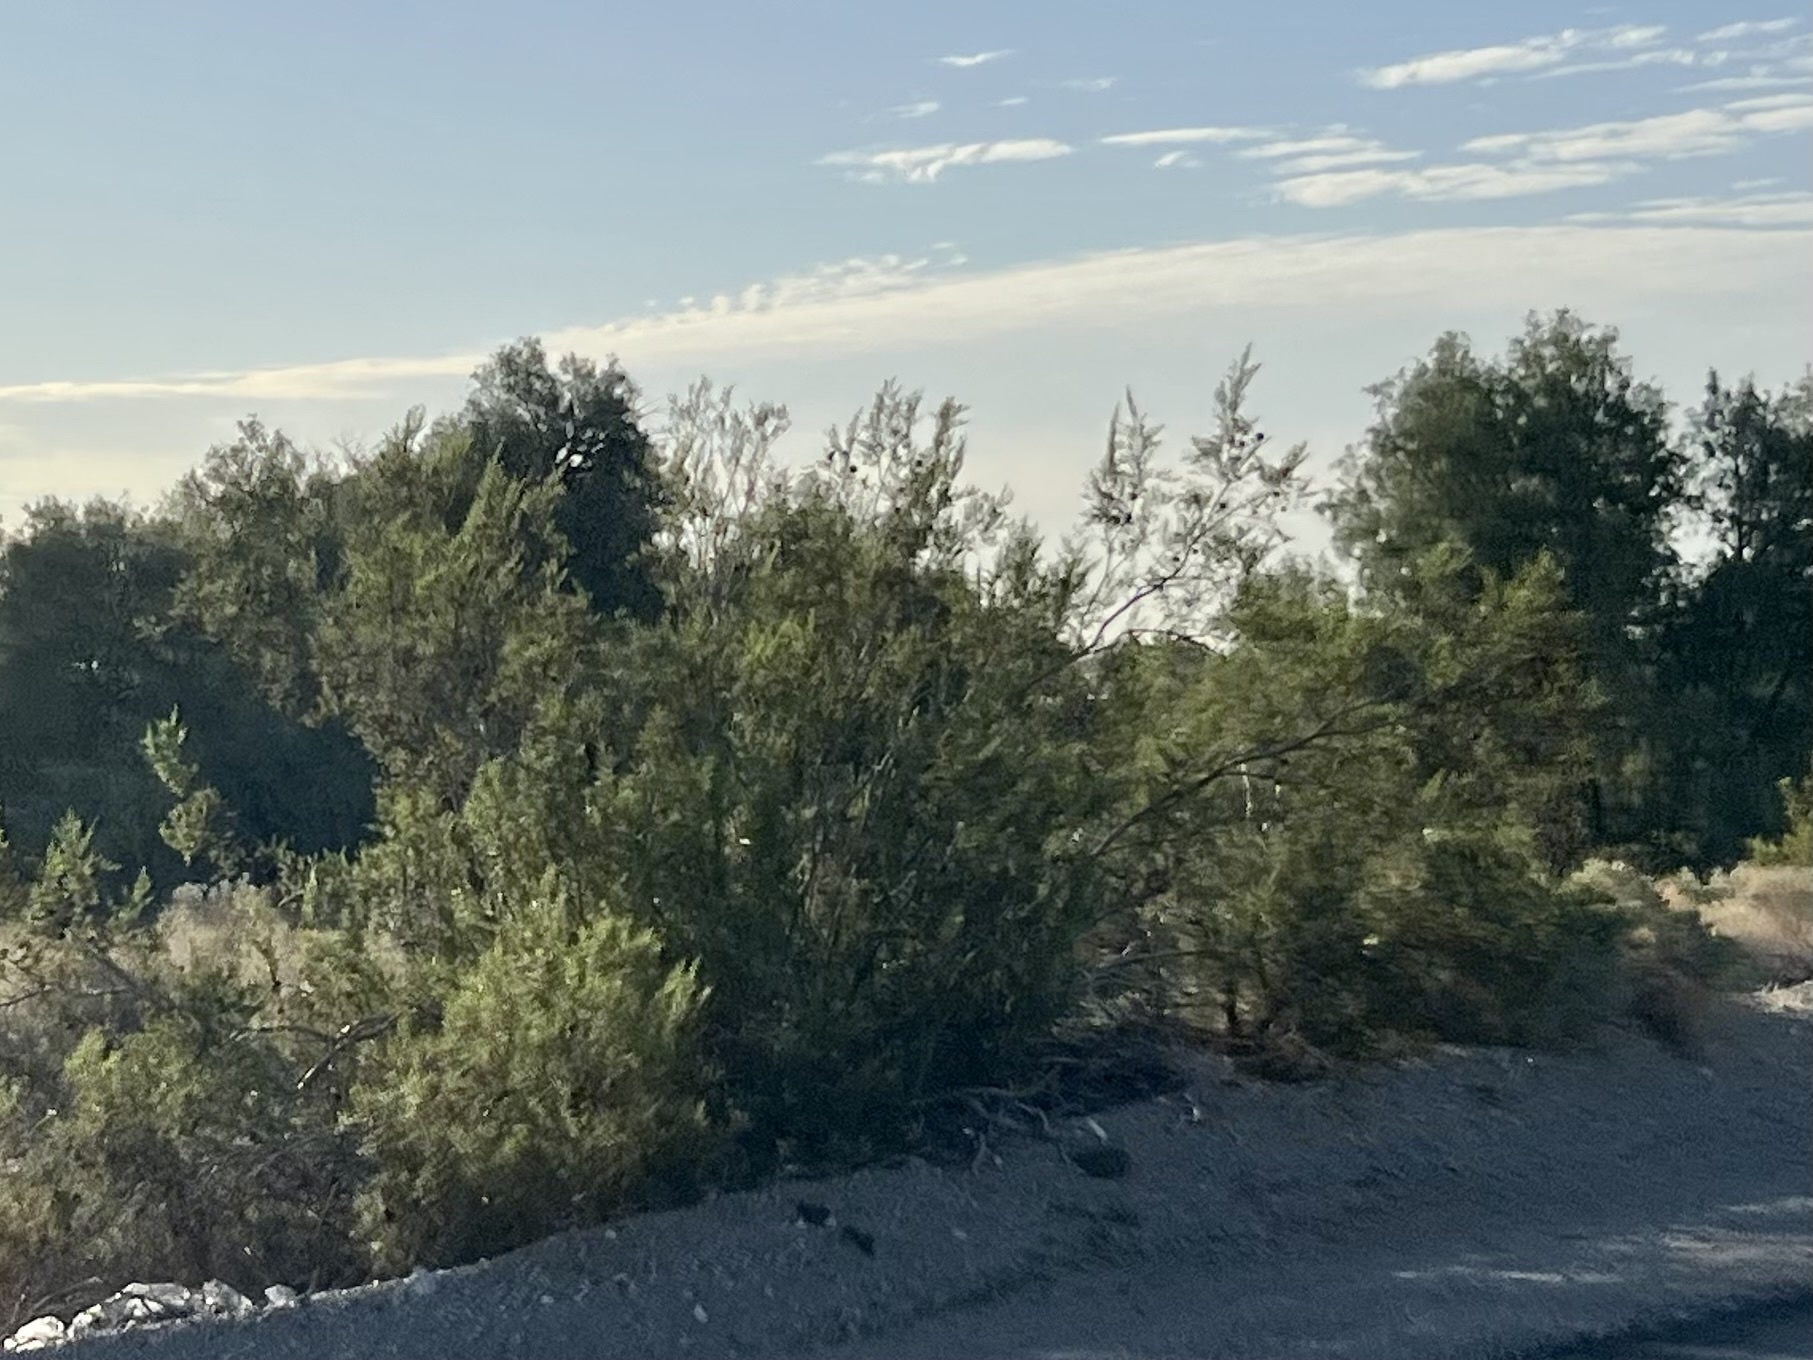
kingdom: Plantae
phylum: Tracheophyta
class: Magnoliopsida
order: Zygophyllales
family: Zygophyllaceae
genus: Larrea
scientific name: Larrea tridentata
